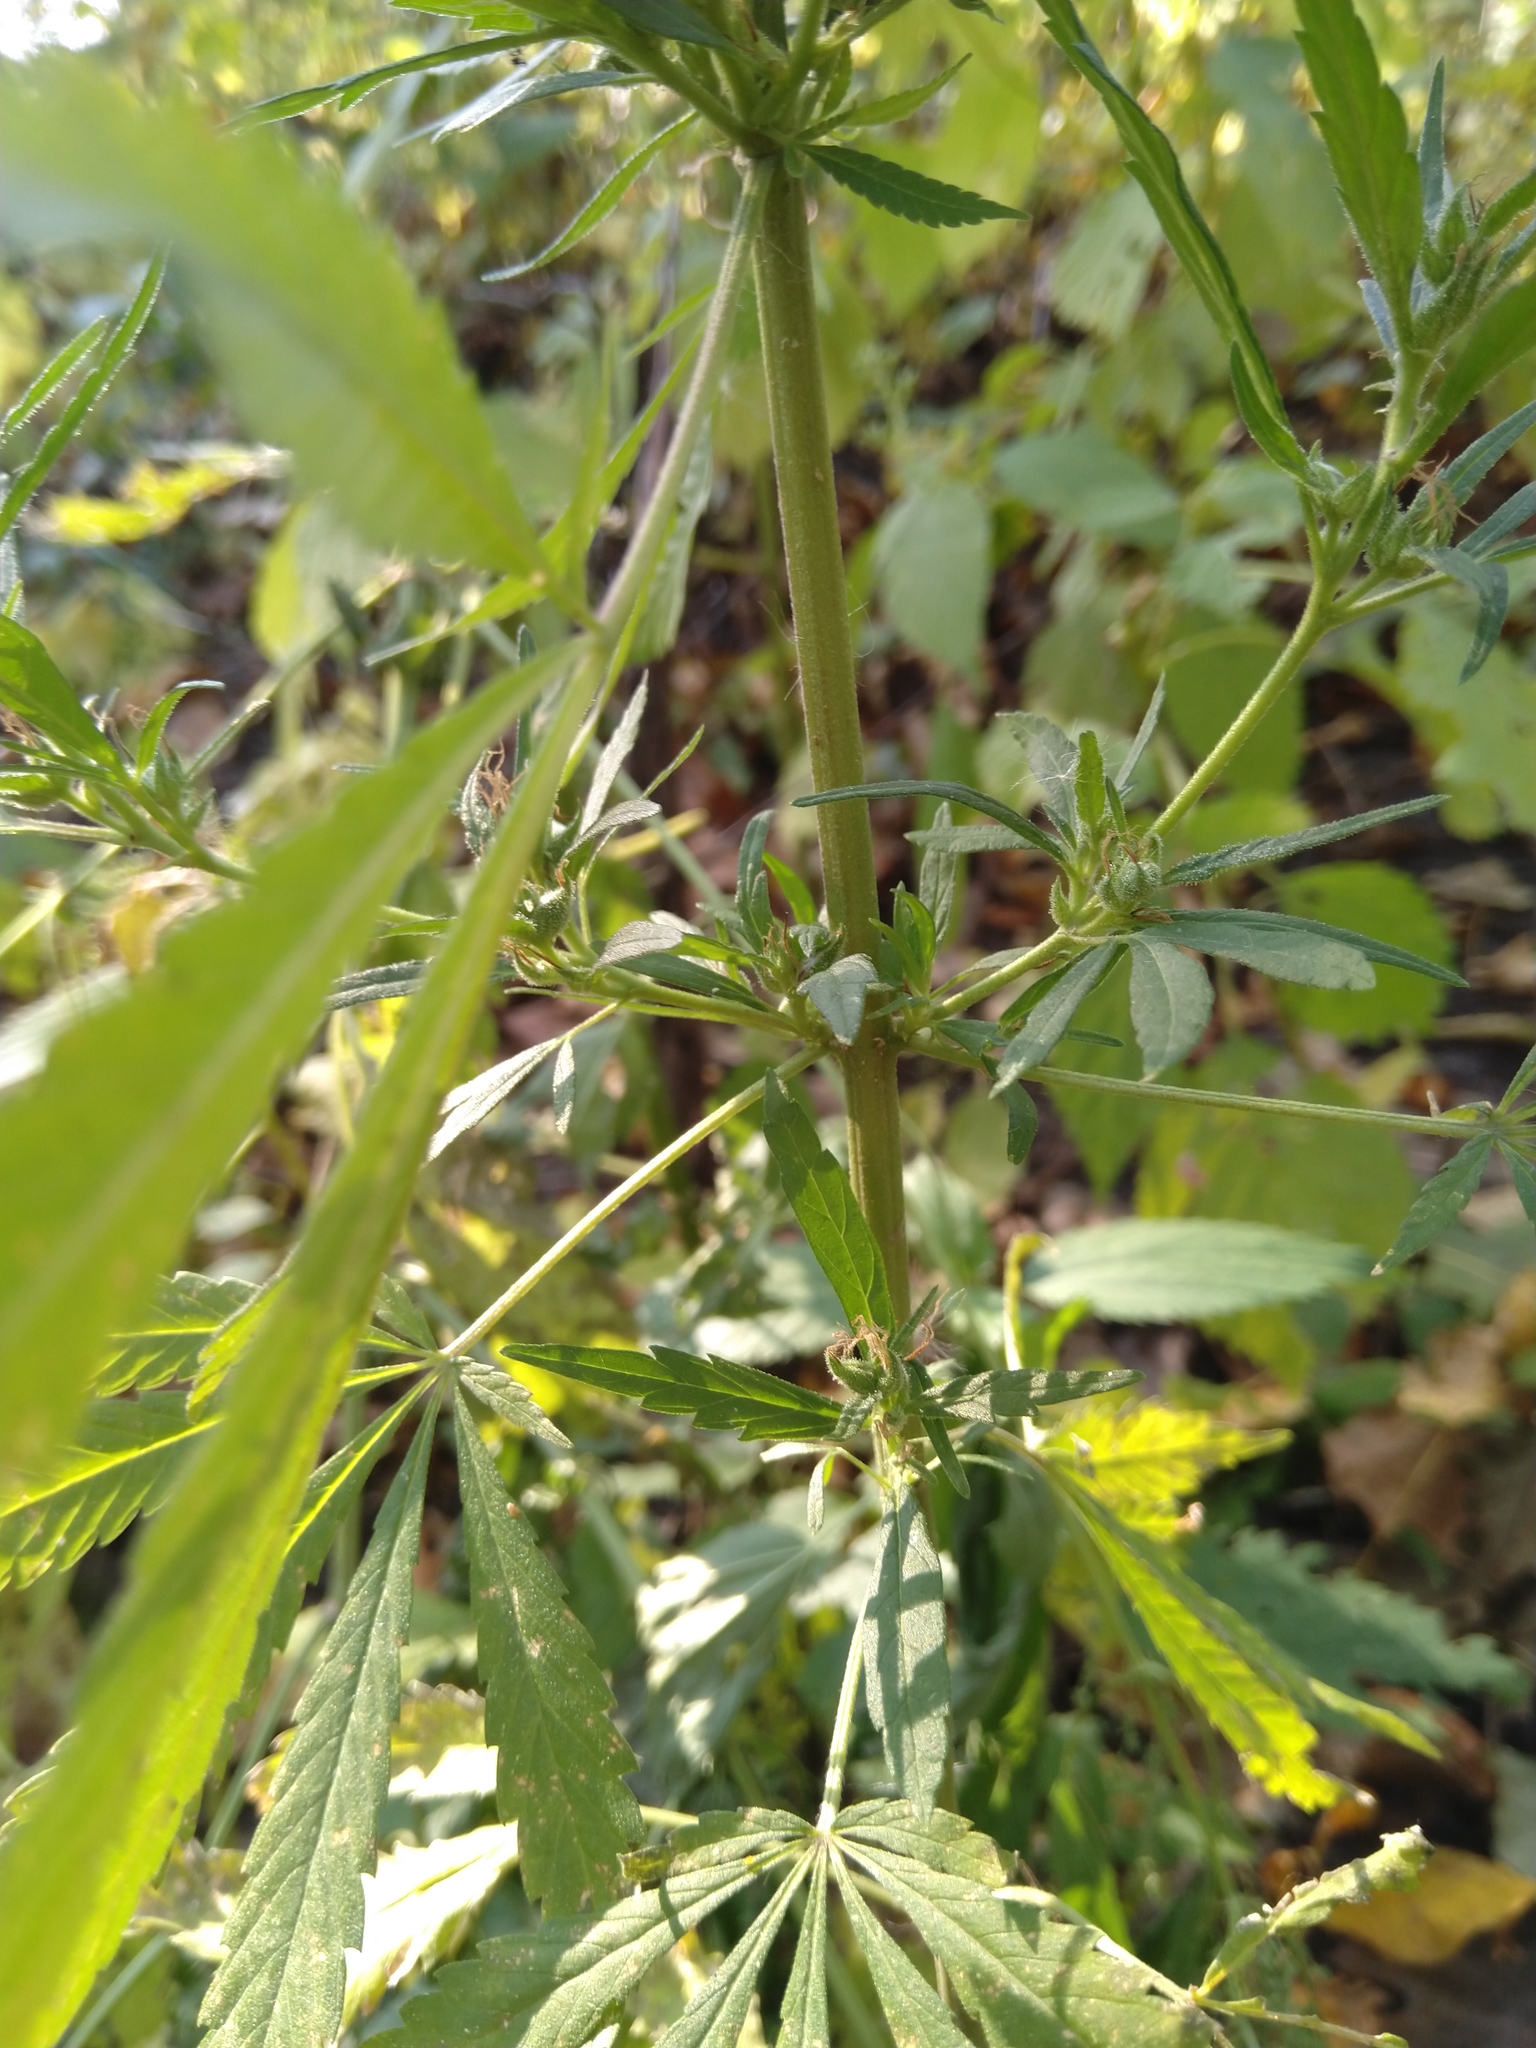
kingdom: Plantae
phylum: Tracheophyta
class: Magnoliopsida
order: Rosales
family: Cannabaceae
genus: Cannabis
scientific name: Cannabis sativa
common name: Hemp
